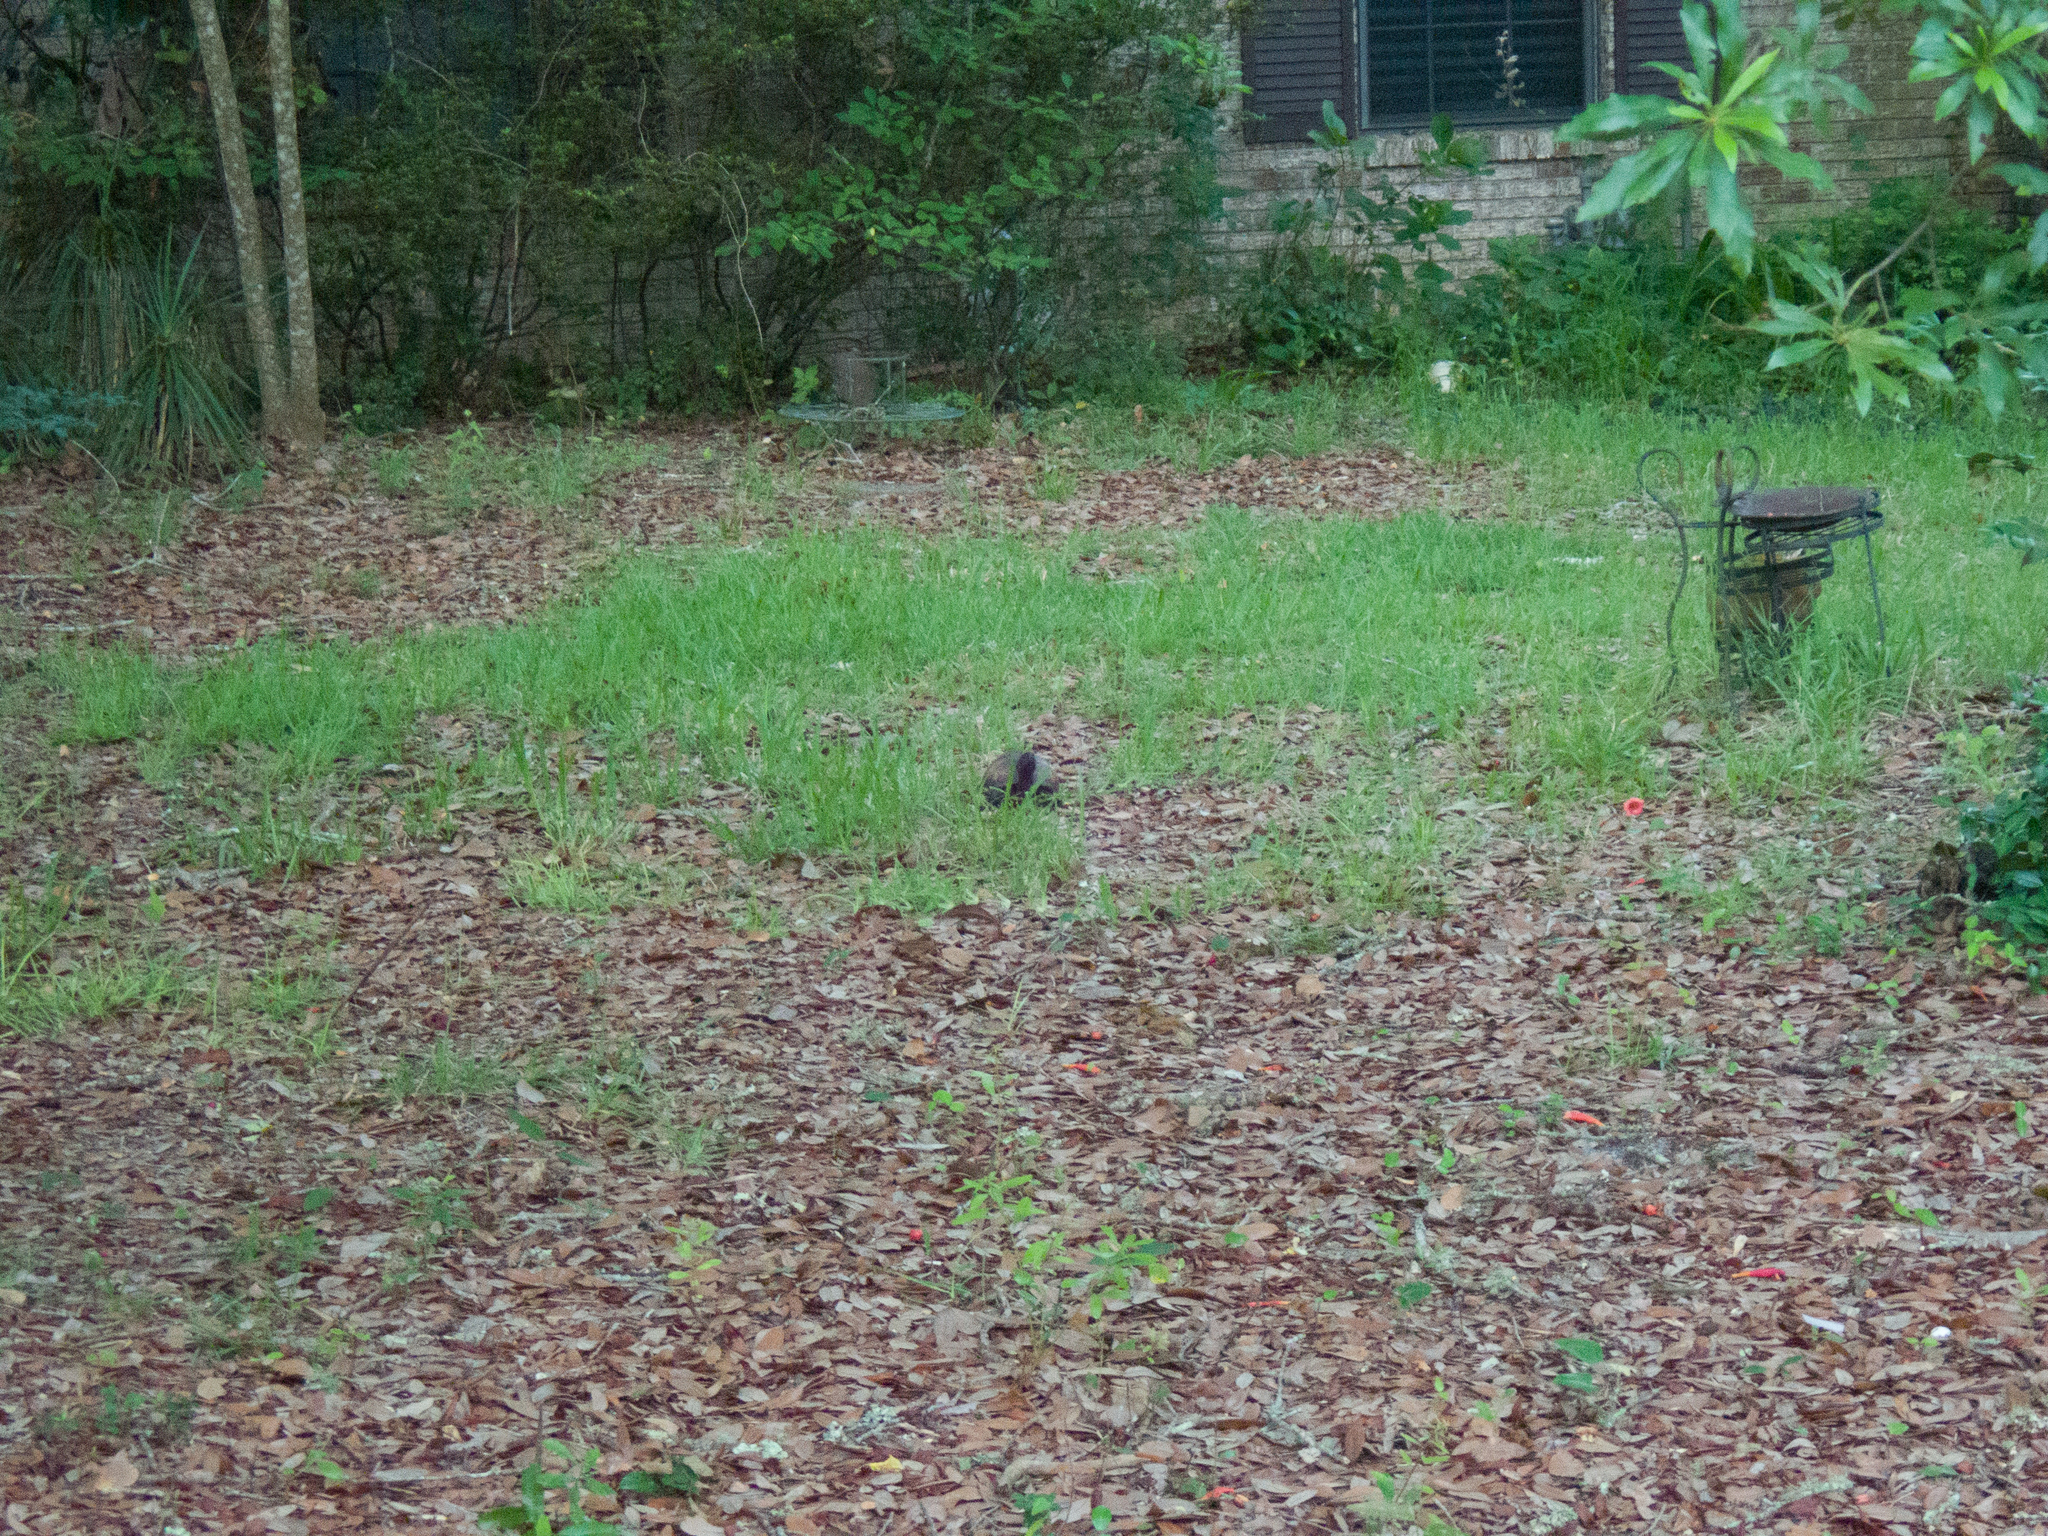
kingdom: Animalia
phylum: Chordata
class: Testudines
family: Emydidae
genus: Terrapene
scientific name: Terrapene carolina
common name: Common box turtle
